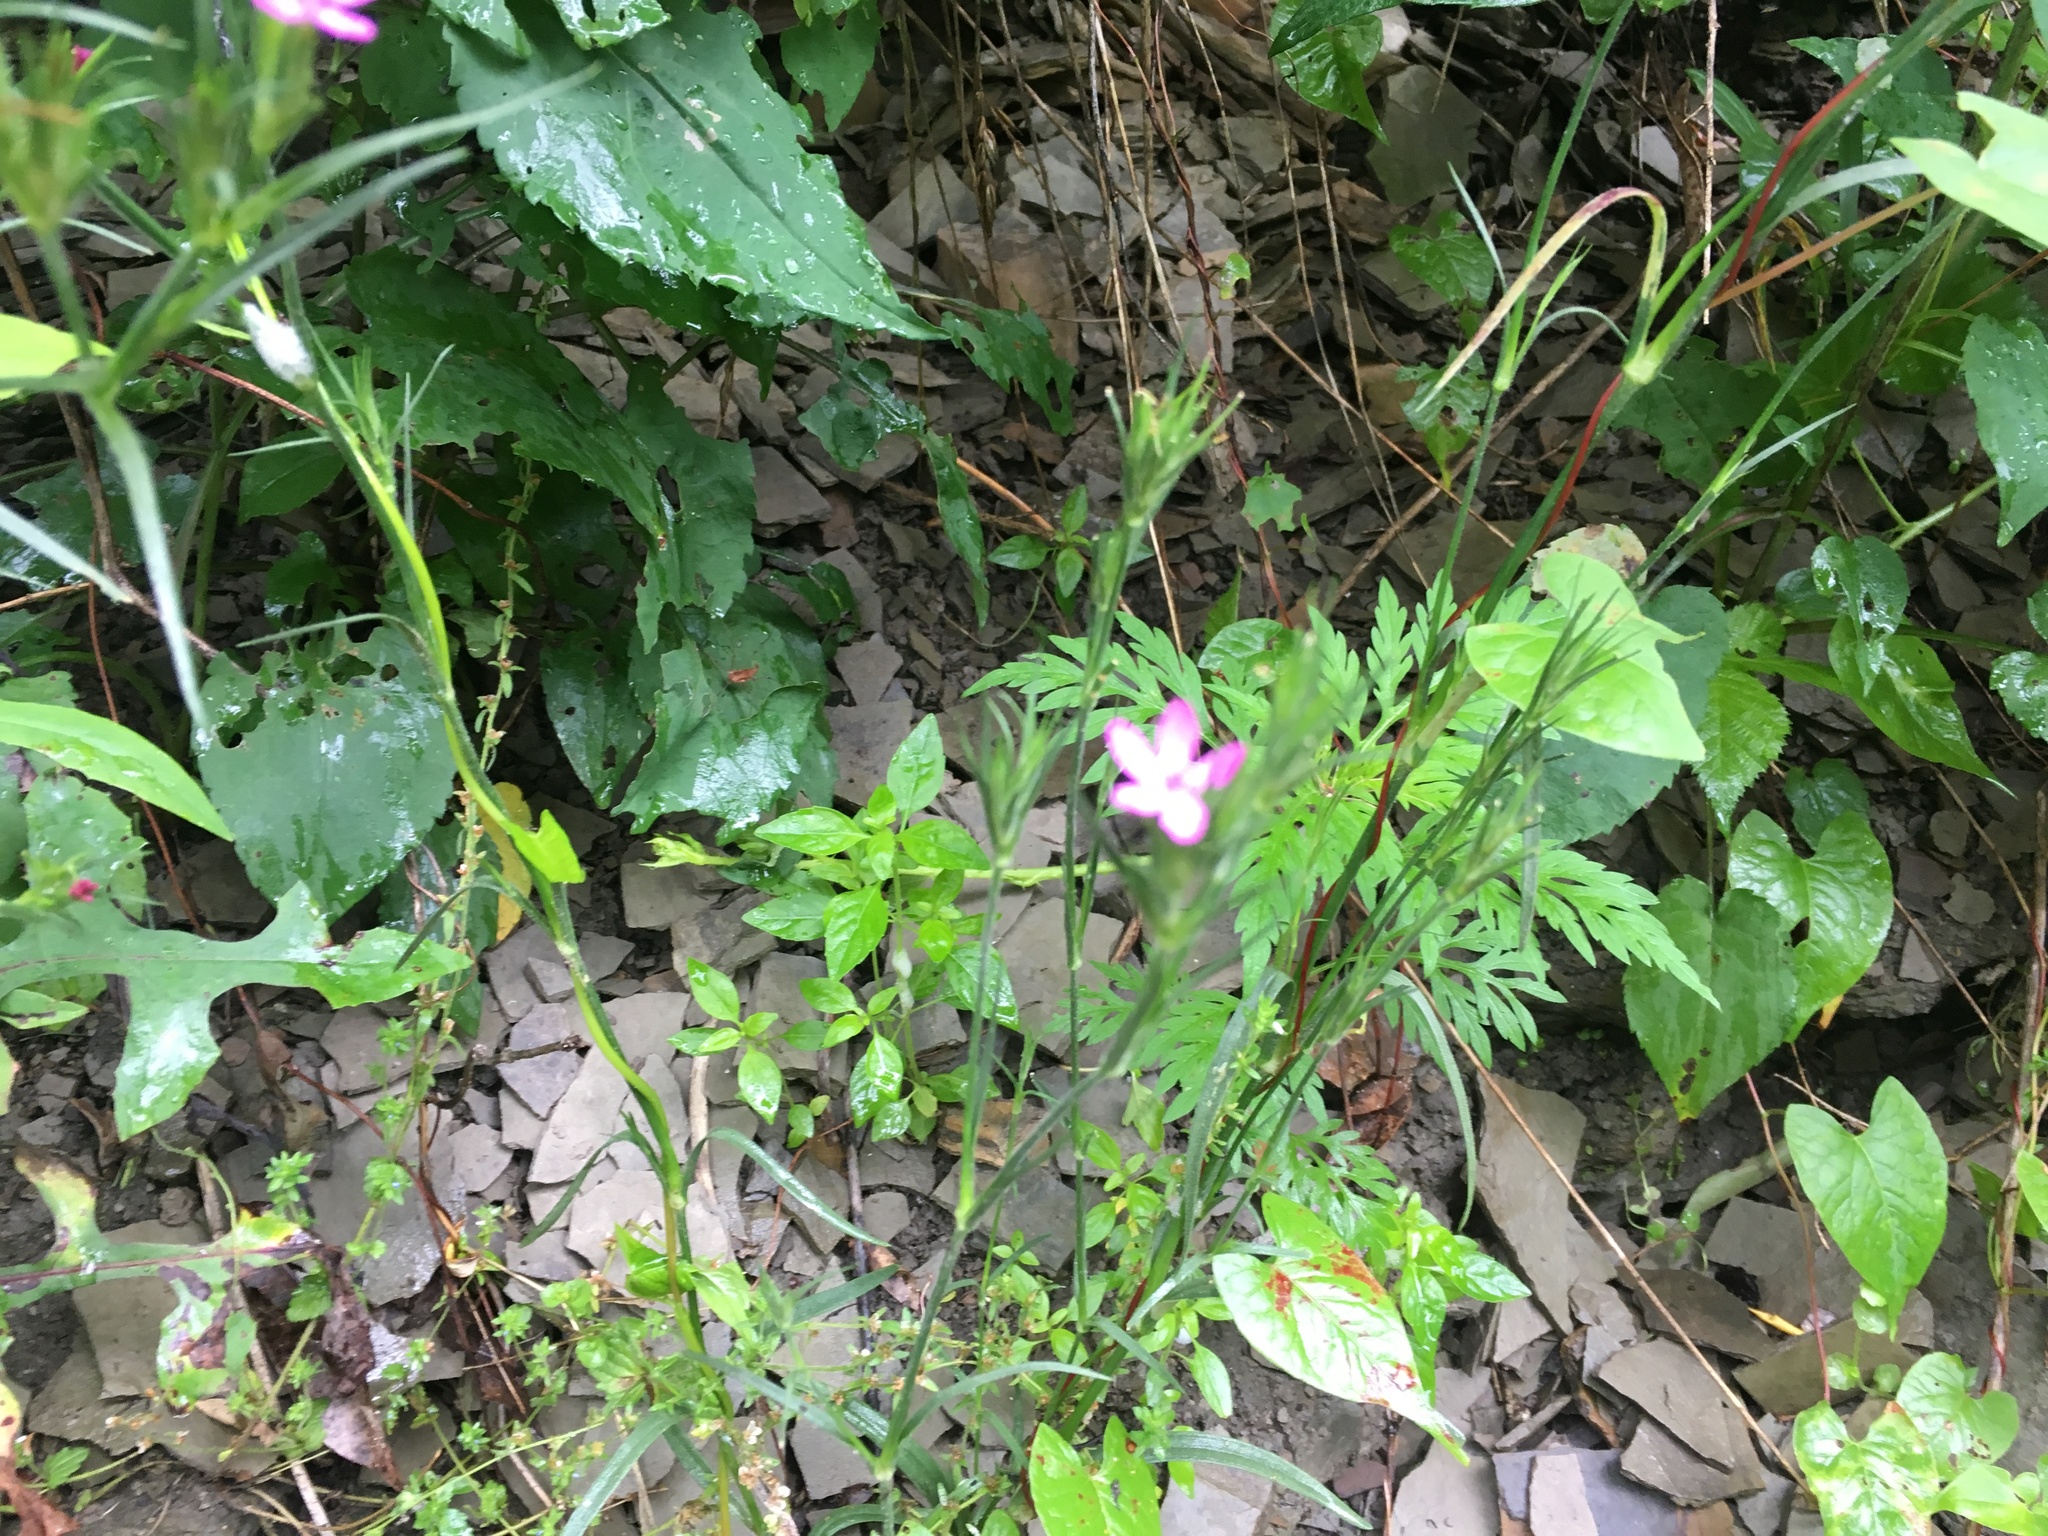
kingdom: Plantae
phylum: Tracheophyta
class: Magnoliopsida
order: Caryophyllales
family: Caryophyllaceae
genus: Dianthus
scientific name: Dianthus armeria
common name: Deptford pink
